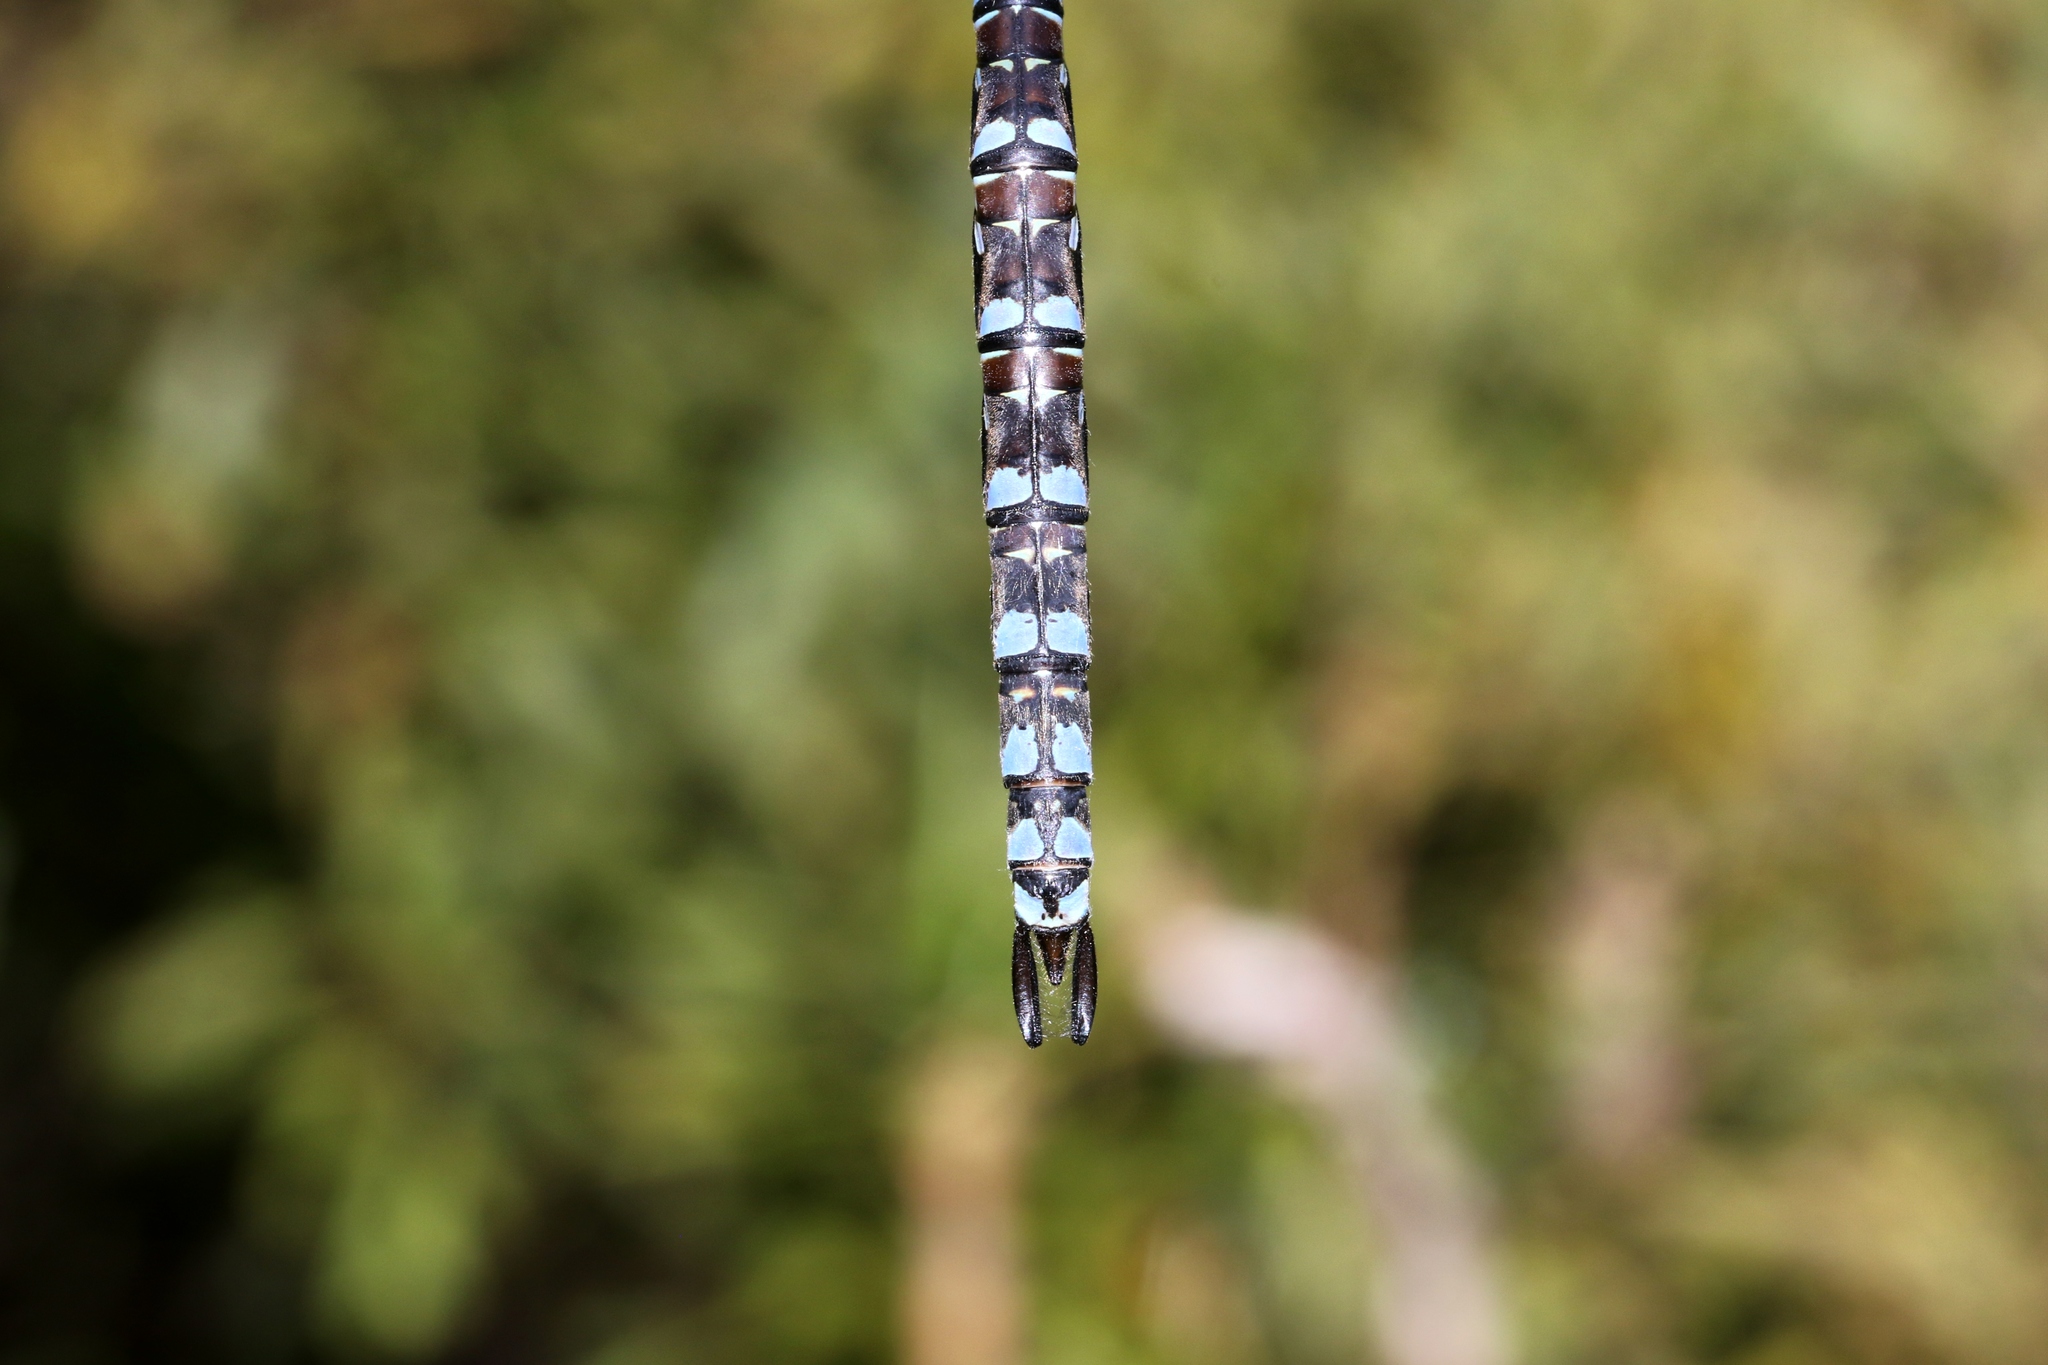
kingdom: Animalia
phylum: Arthropoda
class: Insecta
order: Odonata
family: Aeshnidae
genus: Aeshna
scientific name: Aeshna eremita
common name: Lake darner
